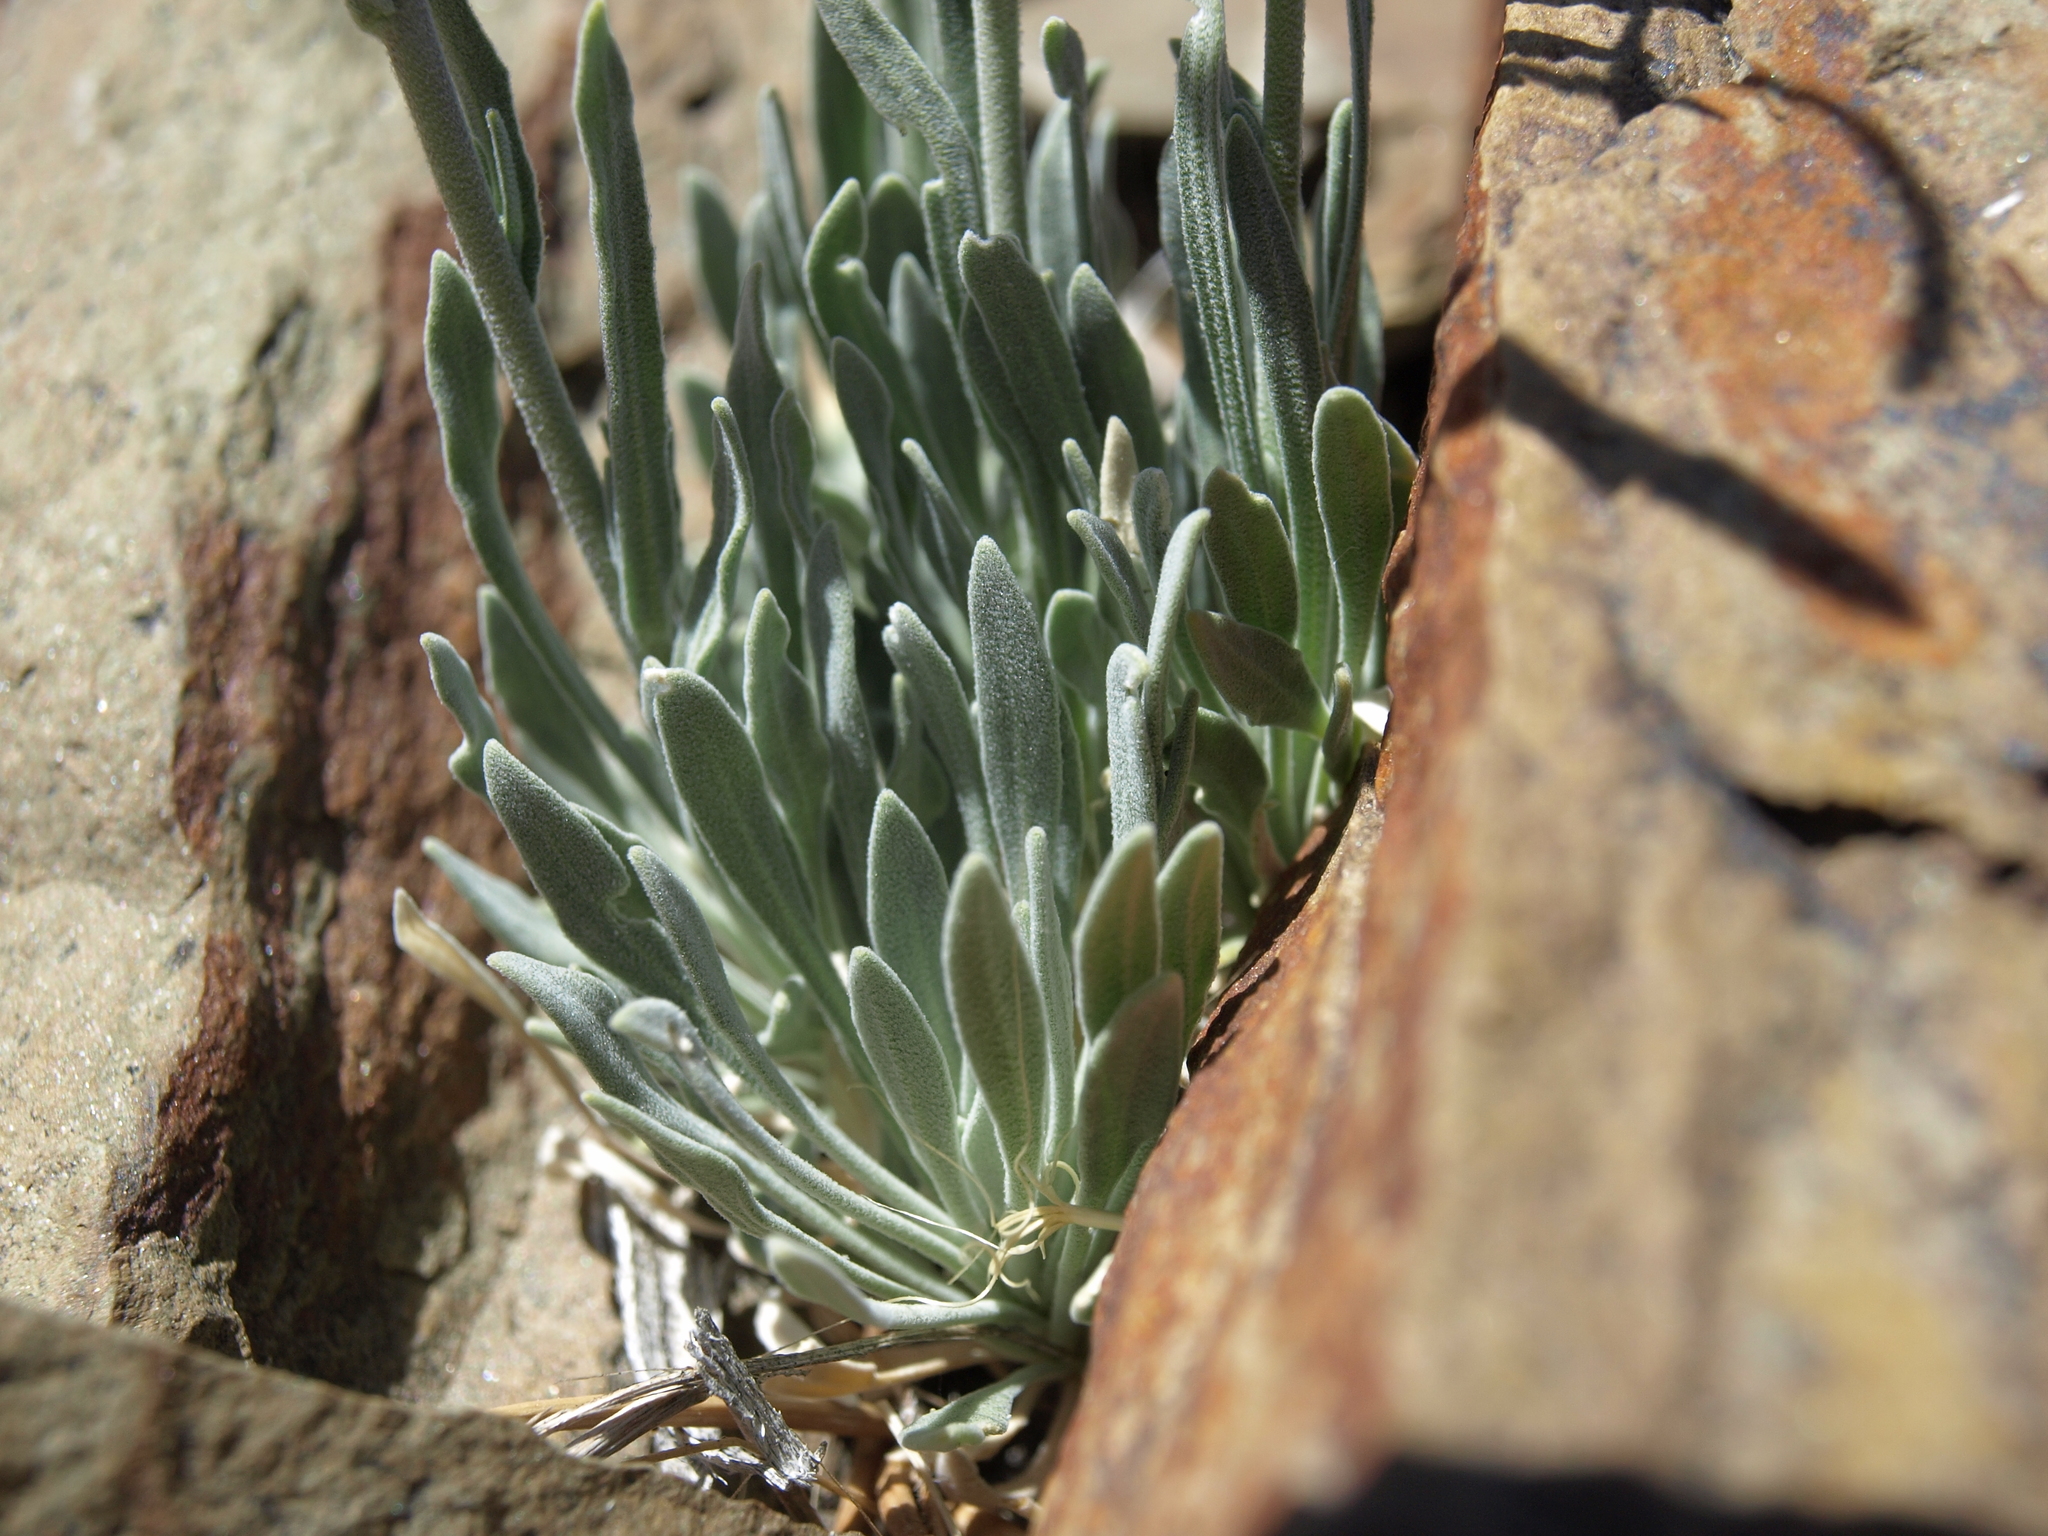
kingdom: Plantae
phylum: Tracheophyta
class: Magnoliopsida
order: Brassicales
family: Brassicaceae
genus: Boechera
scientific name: Boechera dispar
